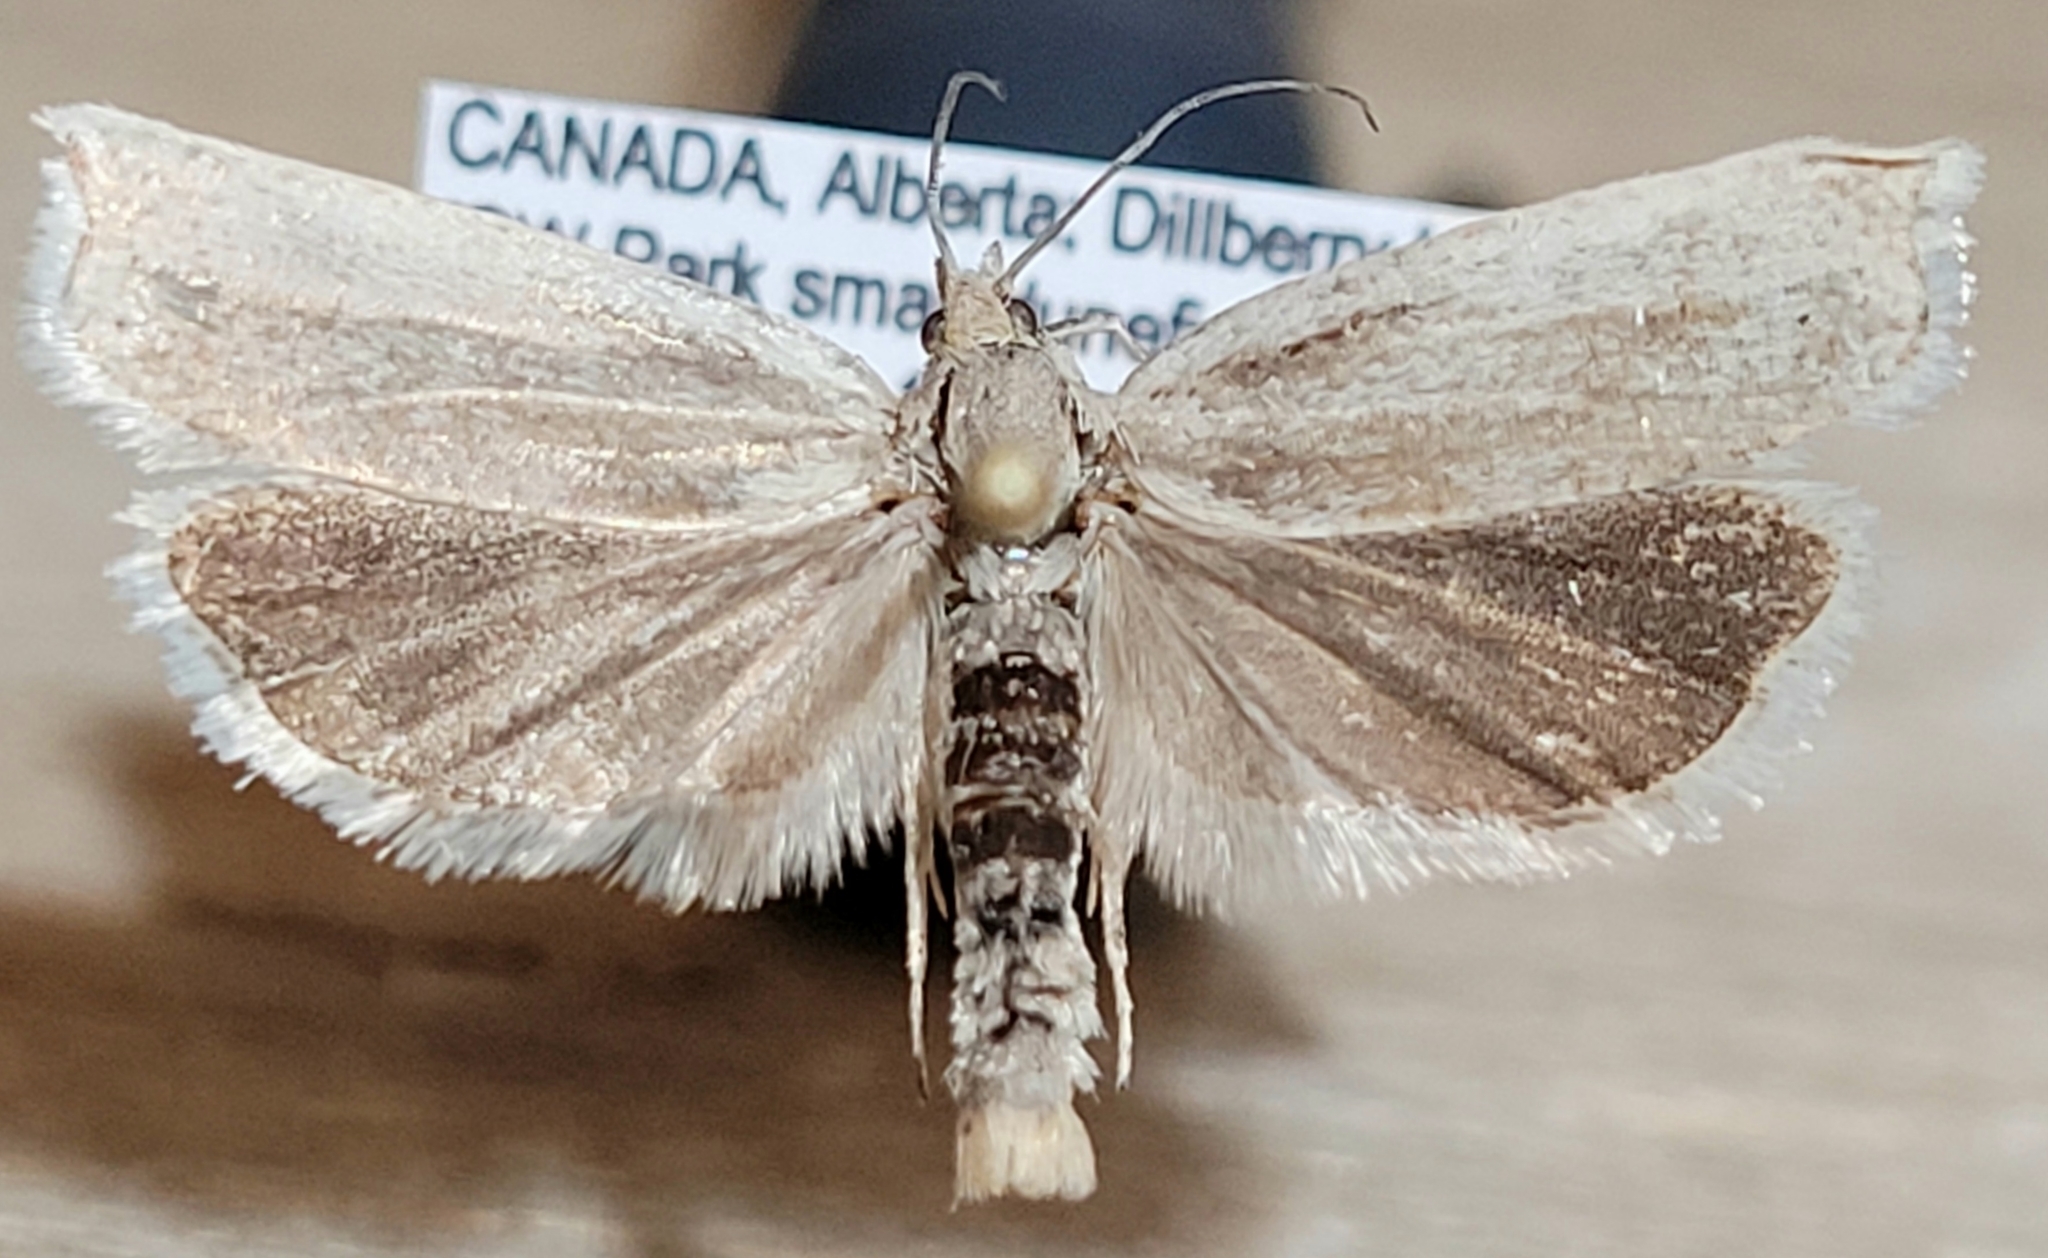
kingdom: Animalia
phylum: Arthropoda
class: Insecta
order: Lepidoptera
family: Tortricidae
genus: Hystrichophora
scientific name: Hystrichophora stygiana
